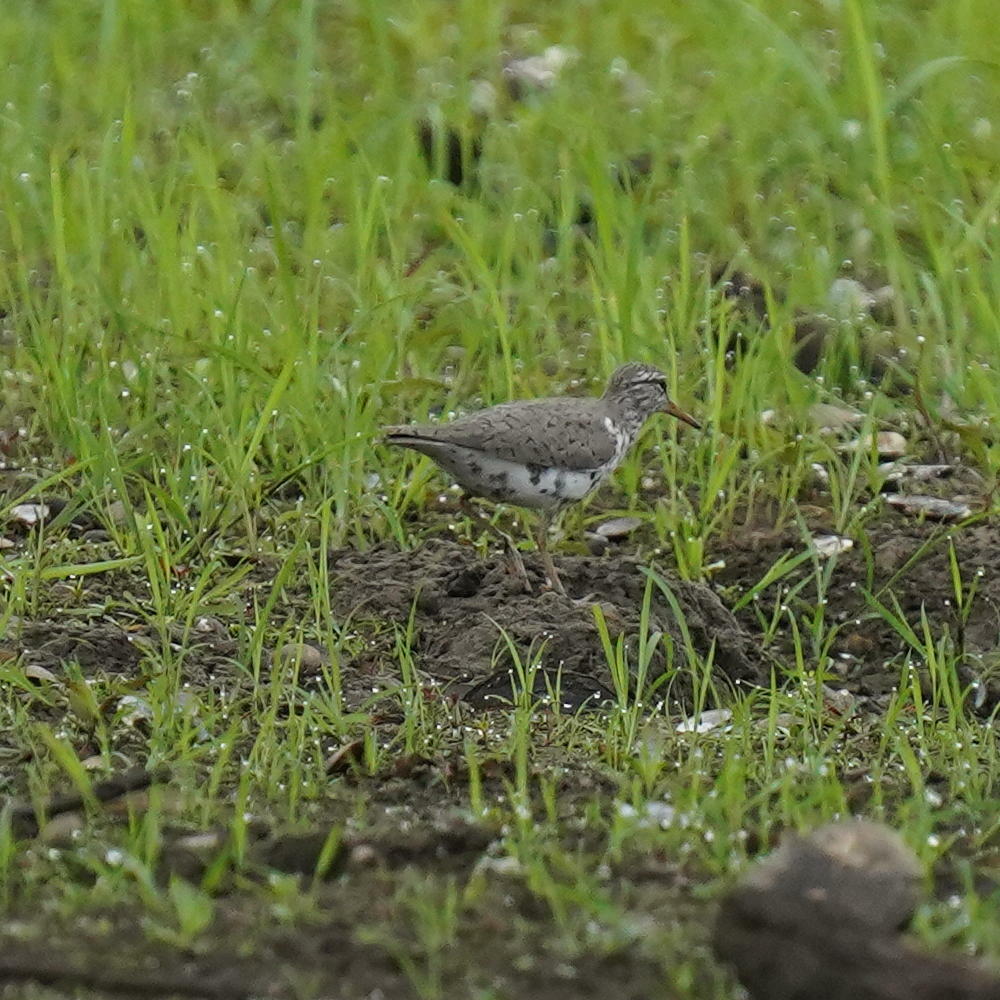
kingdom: Animalia
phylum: Chordata
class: Aves
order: Charadriiformes
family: Scolopacidae
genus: Actitis
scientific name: Actitis macularius
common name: Spotted sandpiper
